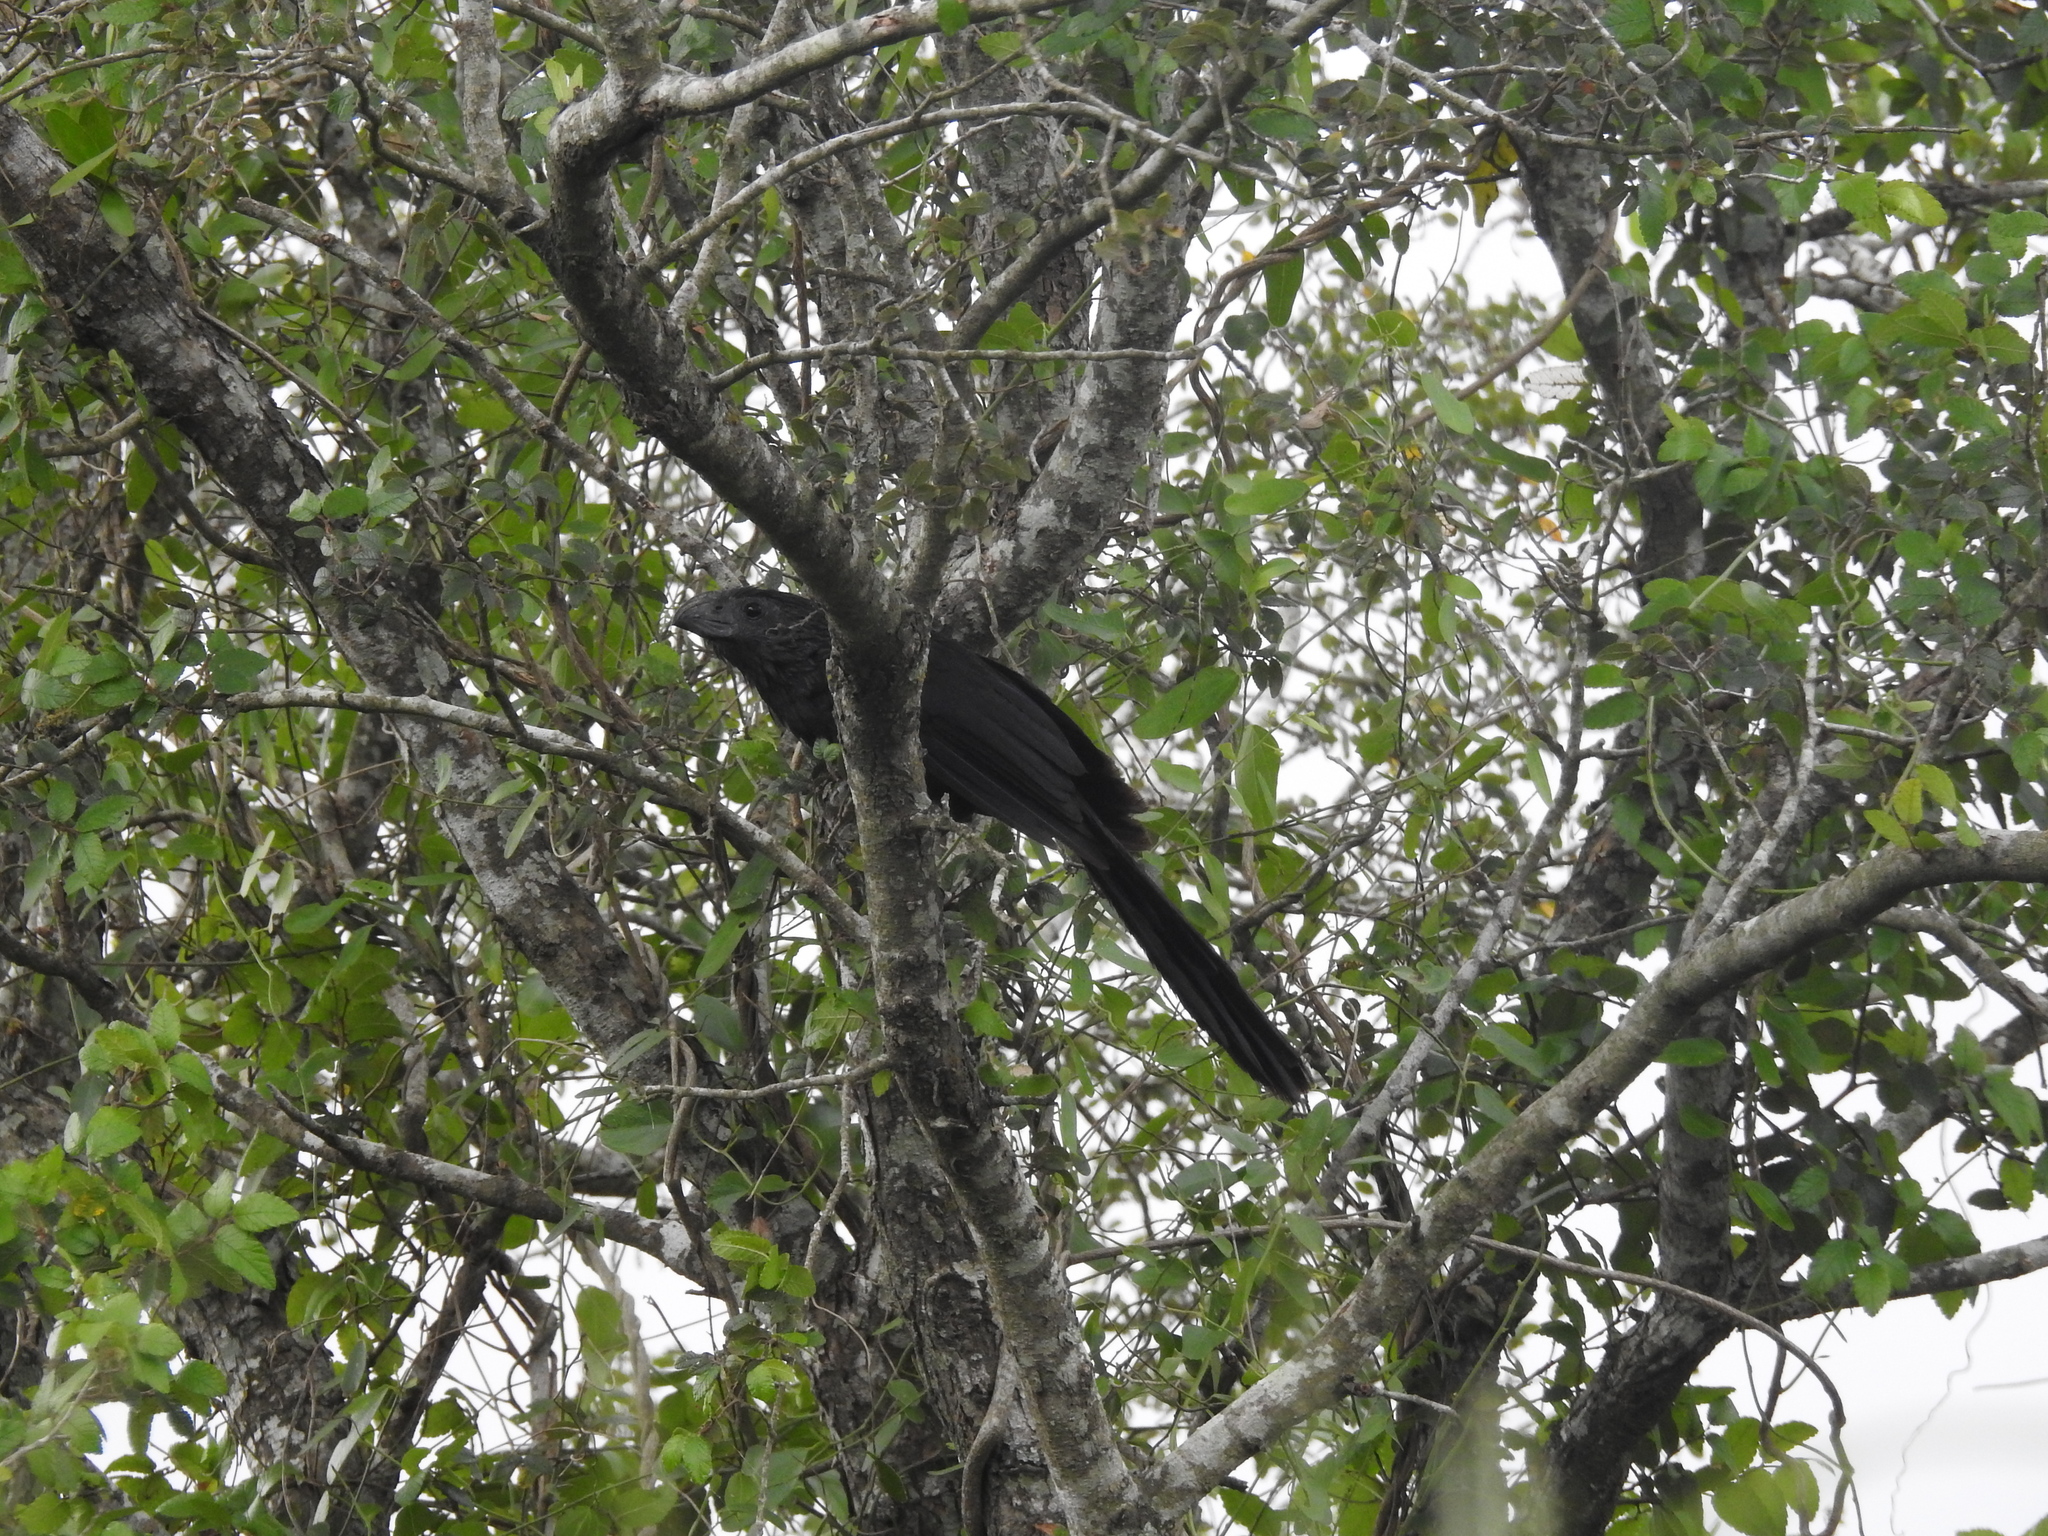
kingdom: Animalia
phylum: Chordata
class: Aves
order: Cuculiformes
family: Cuculidae
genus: Crotophaga
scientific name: Crotophaga sulcirostris
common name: Groove-billed ani
